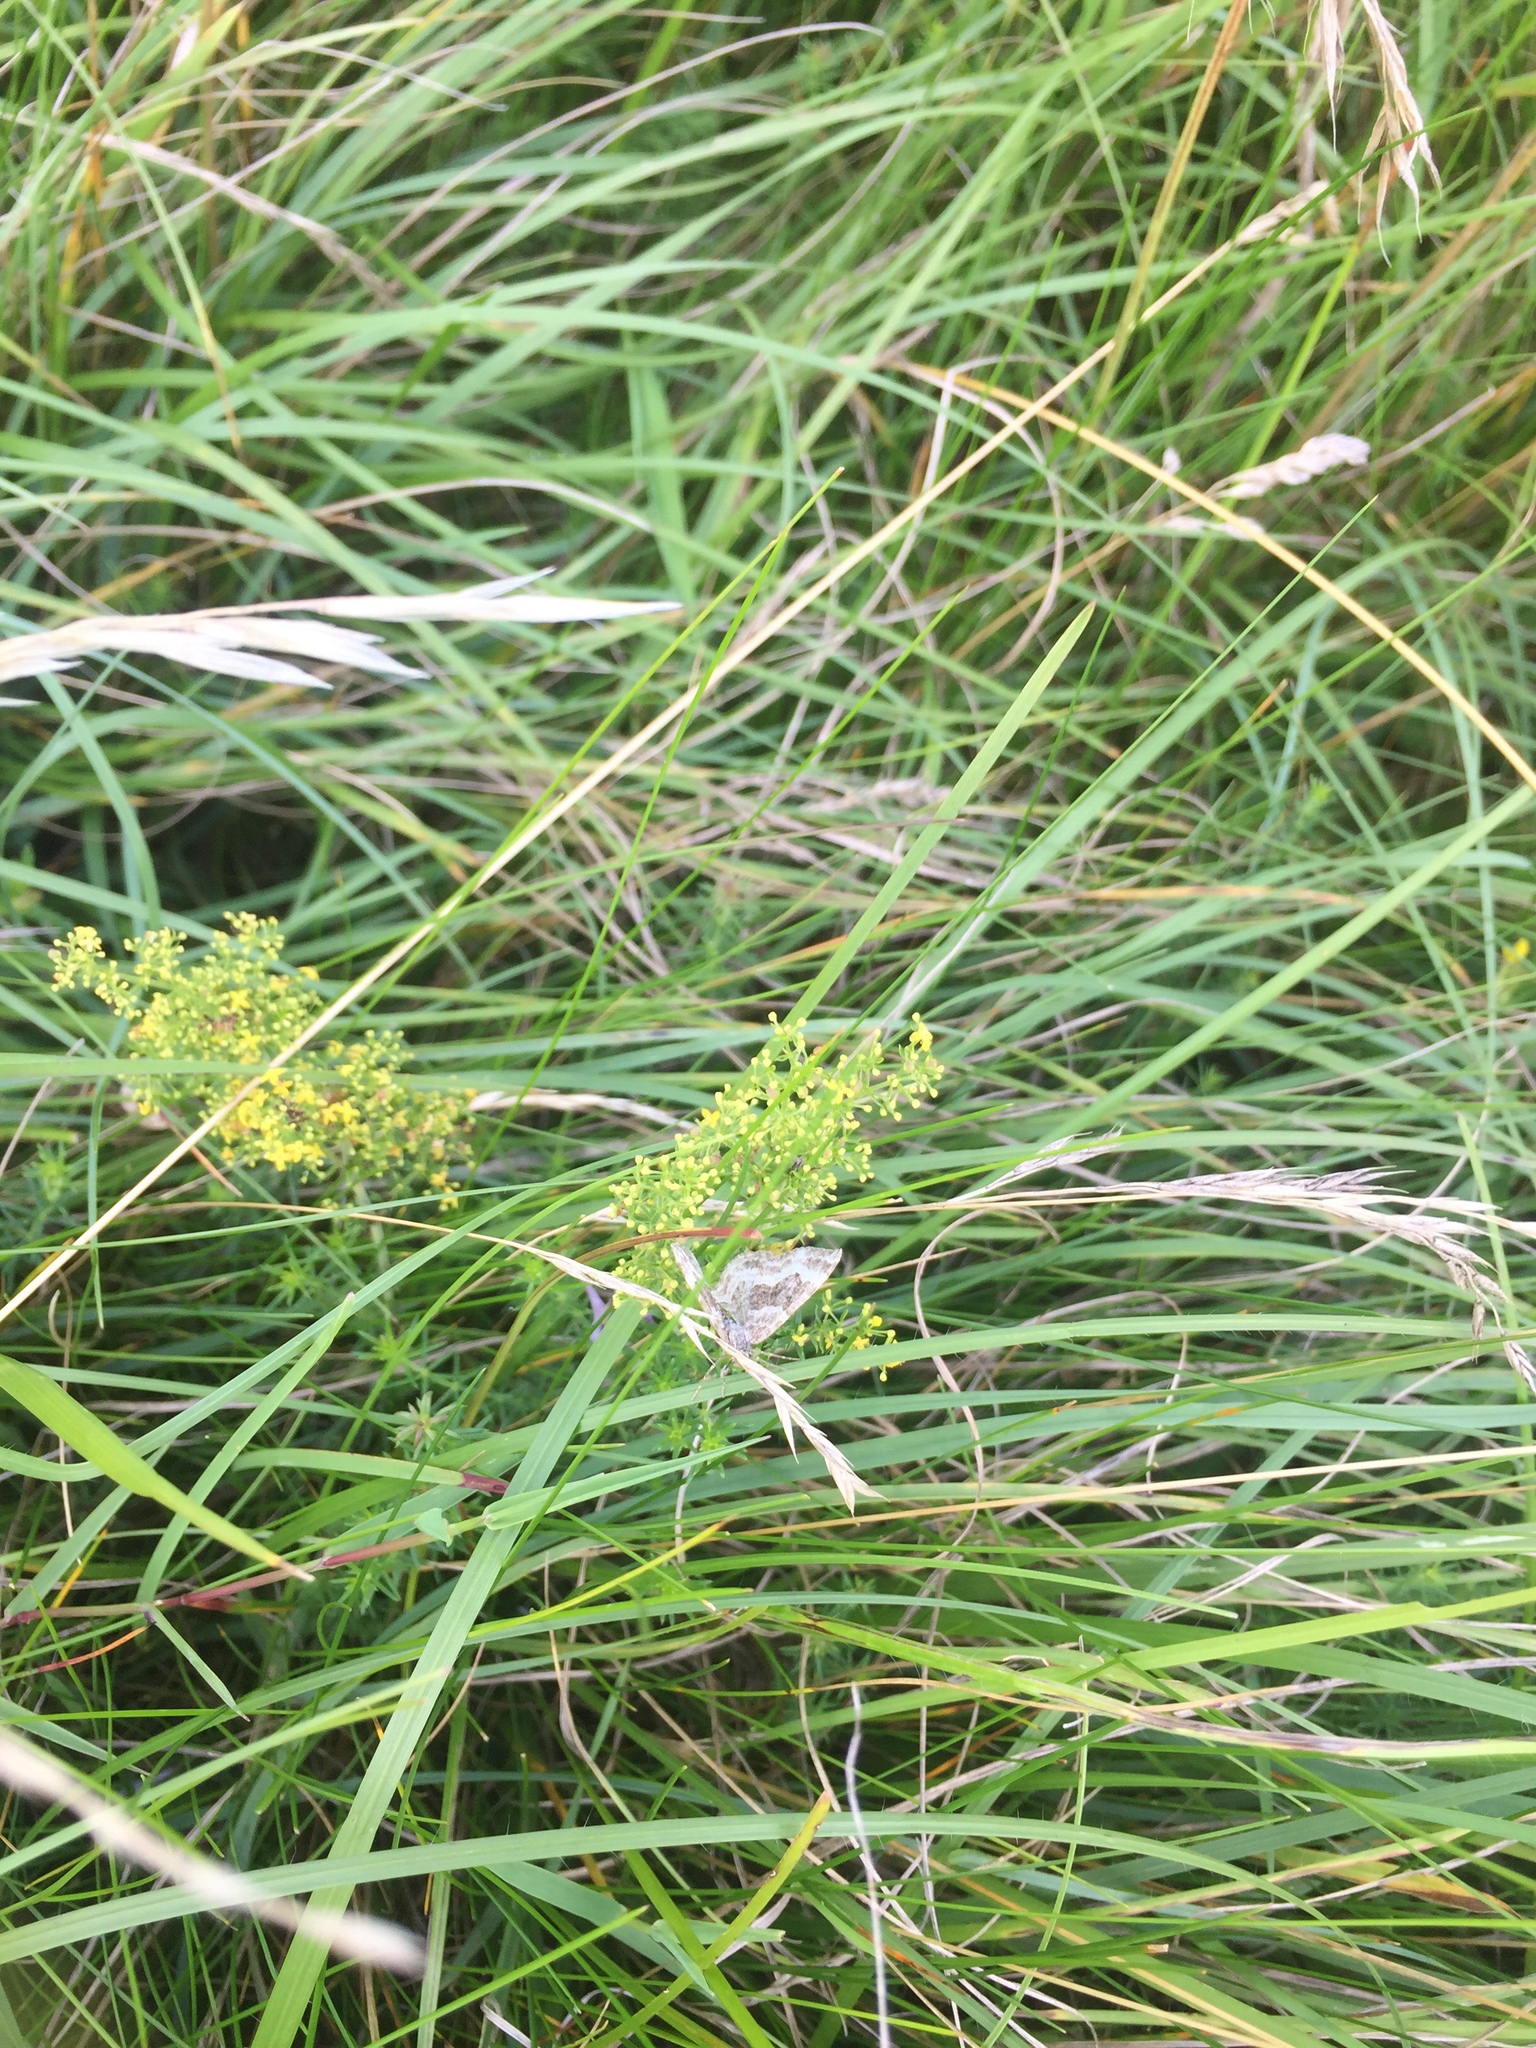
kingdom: Plantae
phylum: Tracheophyta
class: Magnoliopsida
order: Gentianales
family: Rubiaceae
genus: Galium
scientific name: Galium verum
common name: Lady's bedstraw
